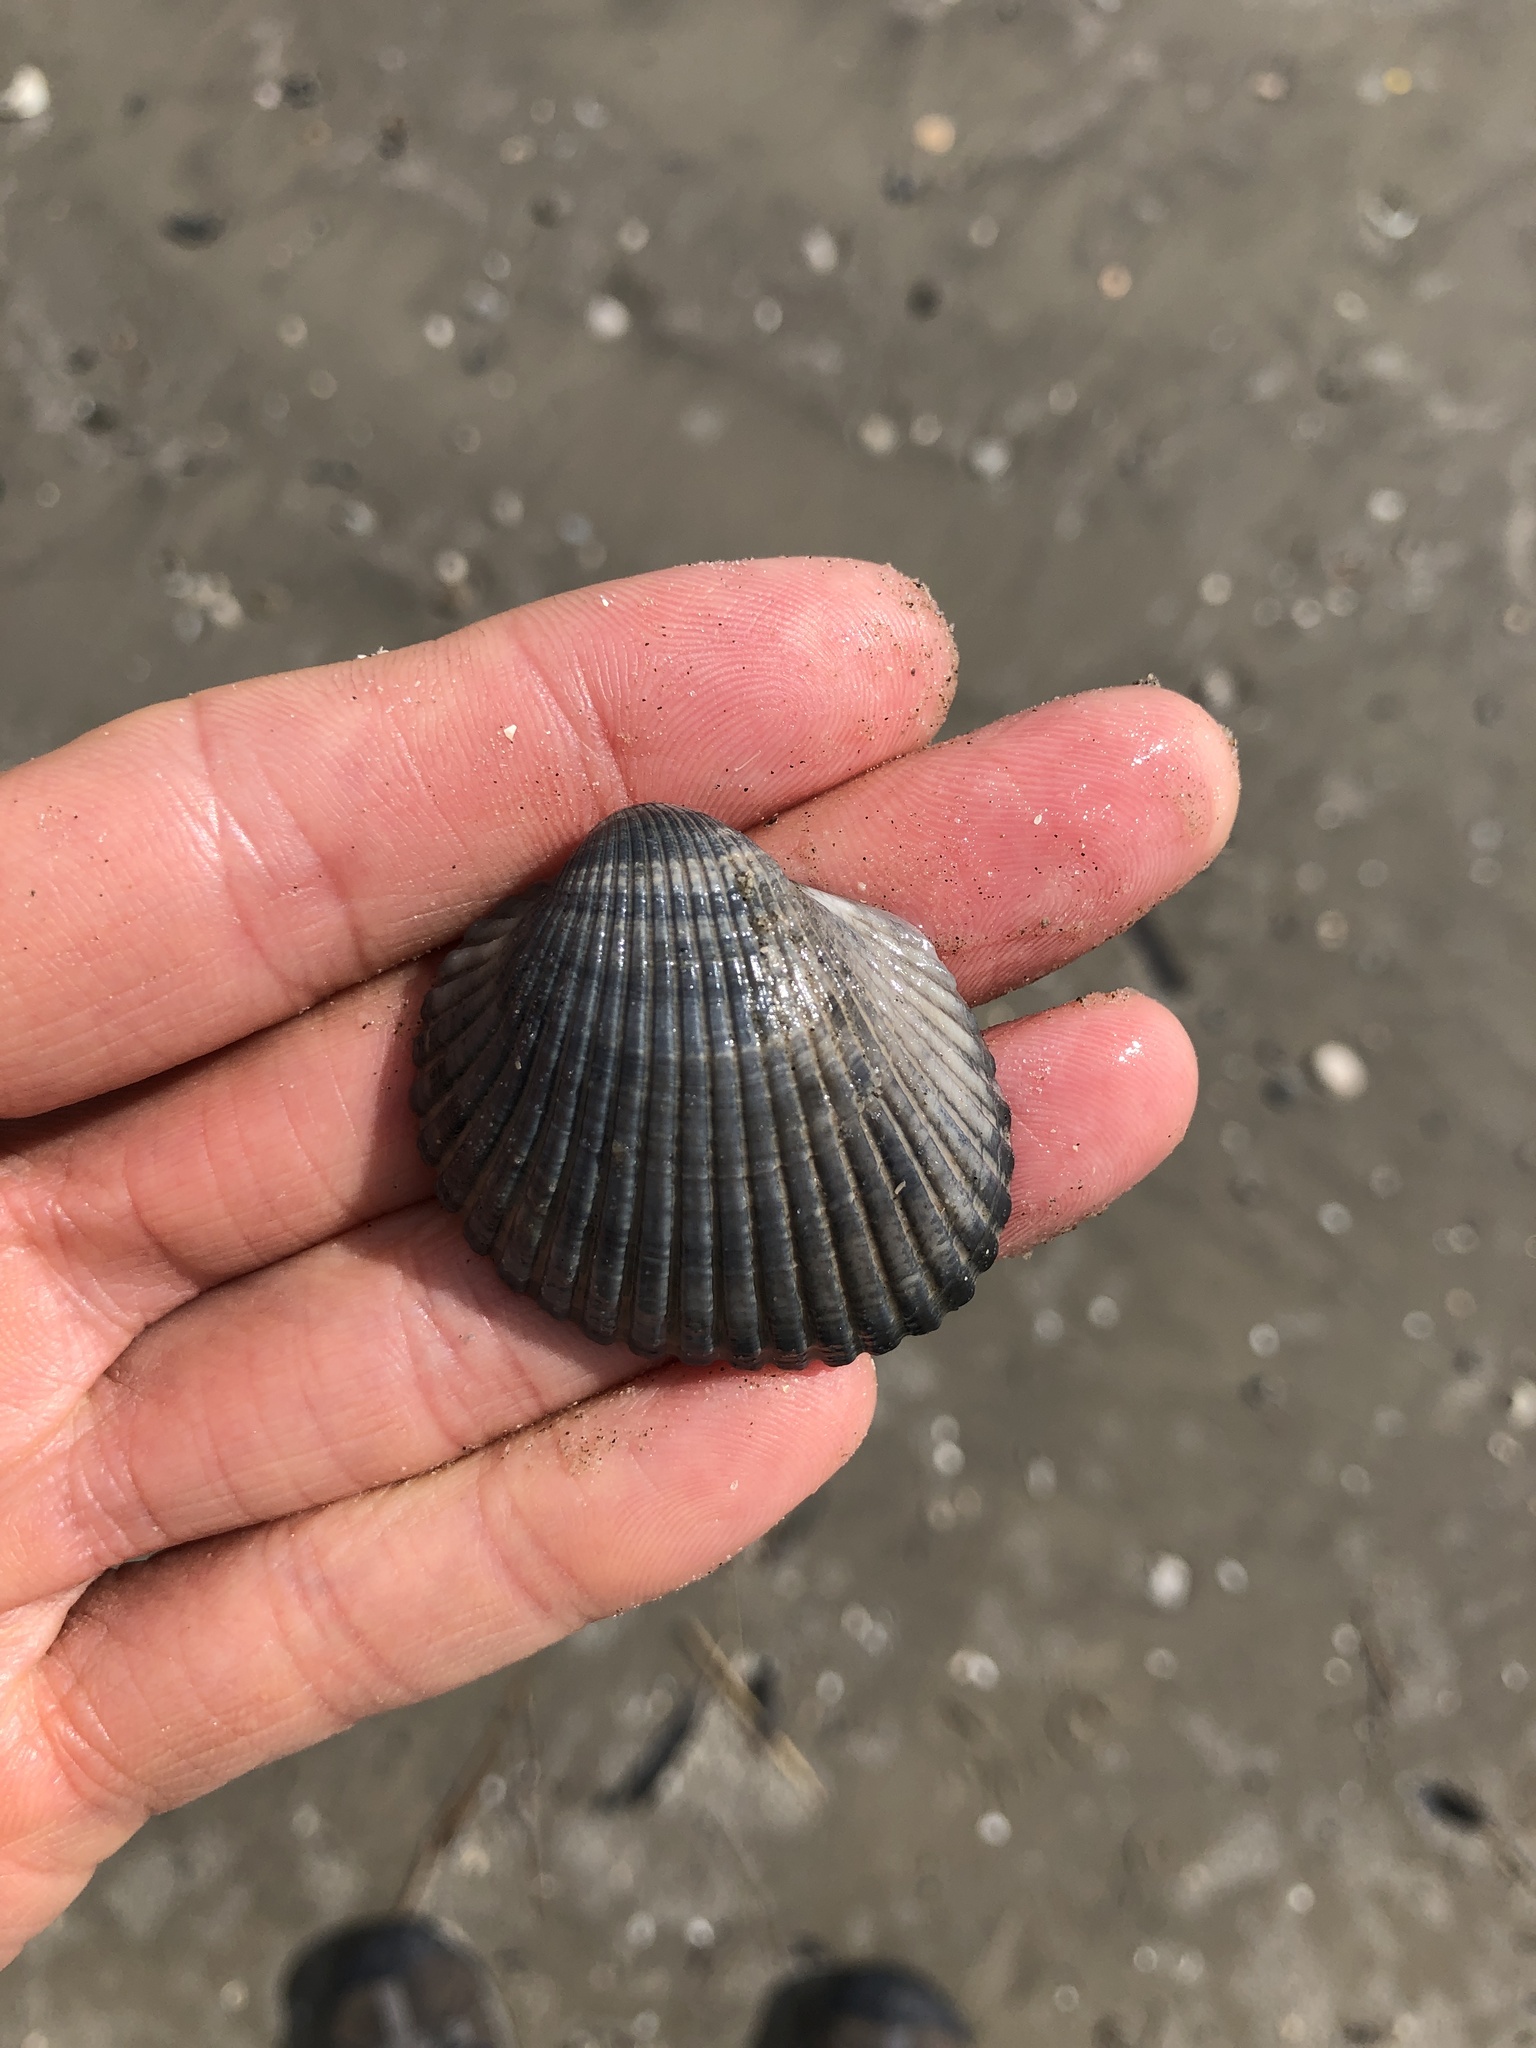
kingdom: Animalia
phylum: Mollusca
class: Bivalvia
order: Arcida
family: Arcidae
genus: Lunarca
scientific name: Lunarca ovalis
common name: Blood ark
